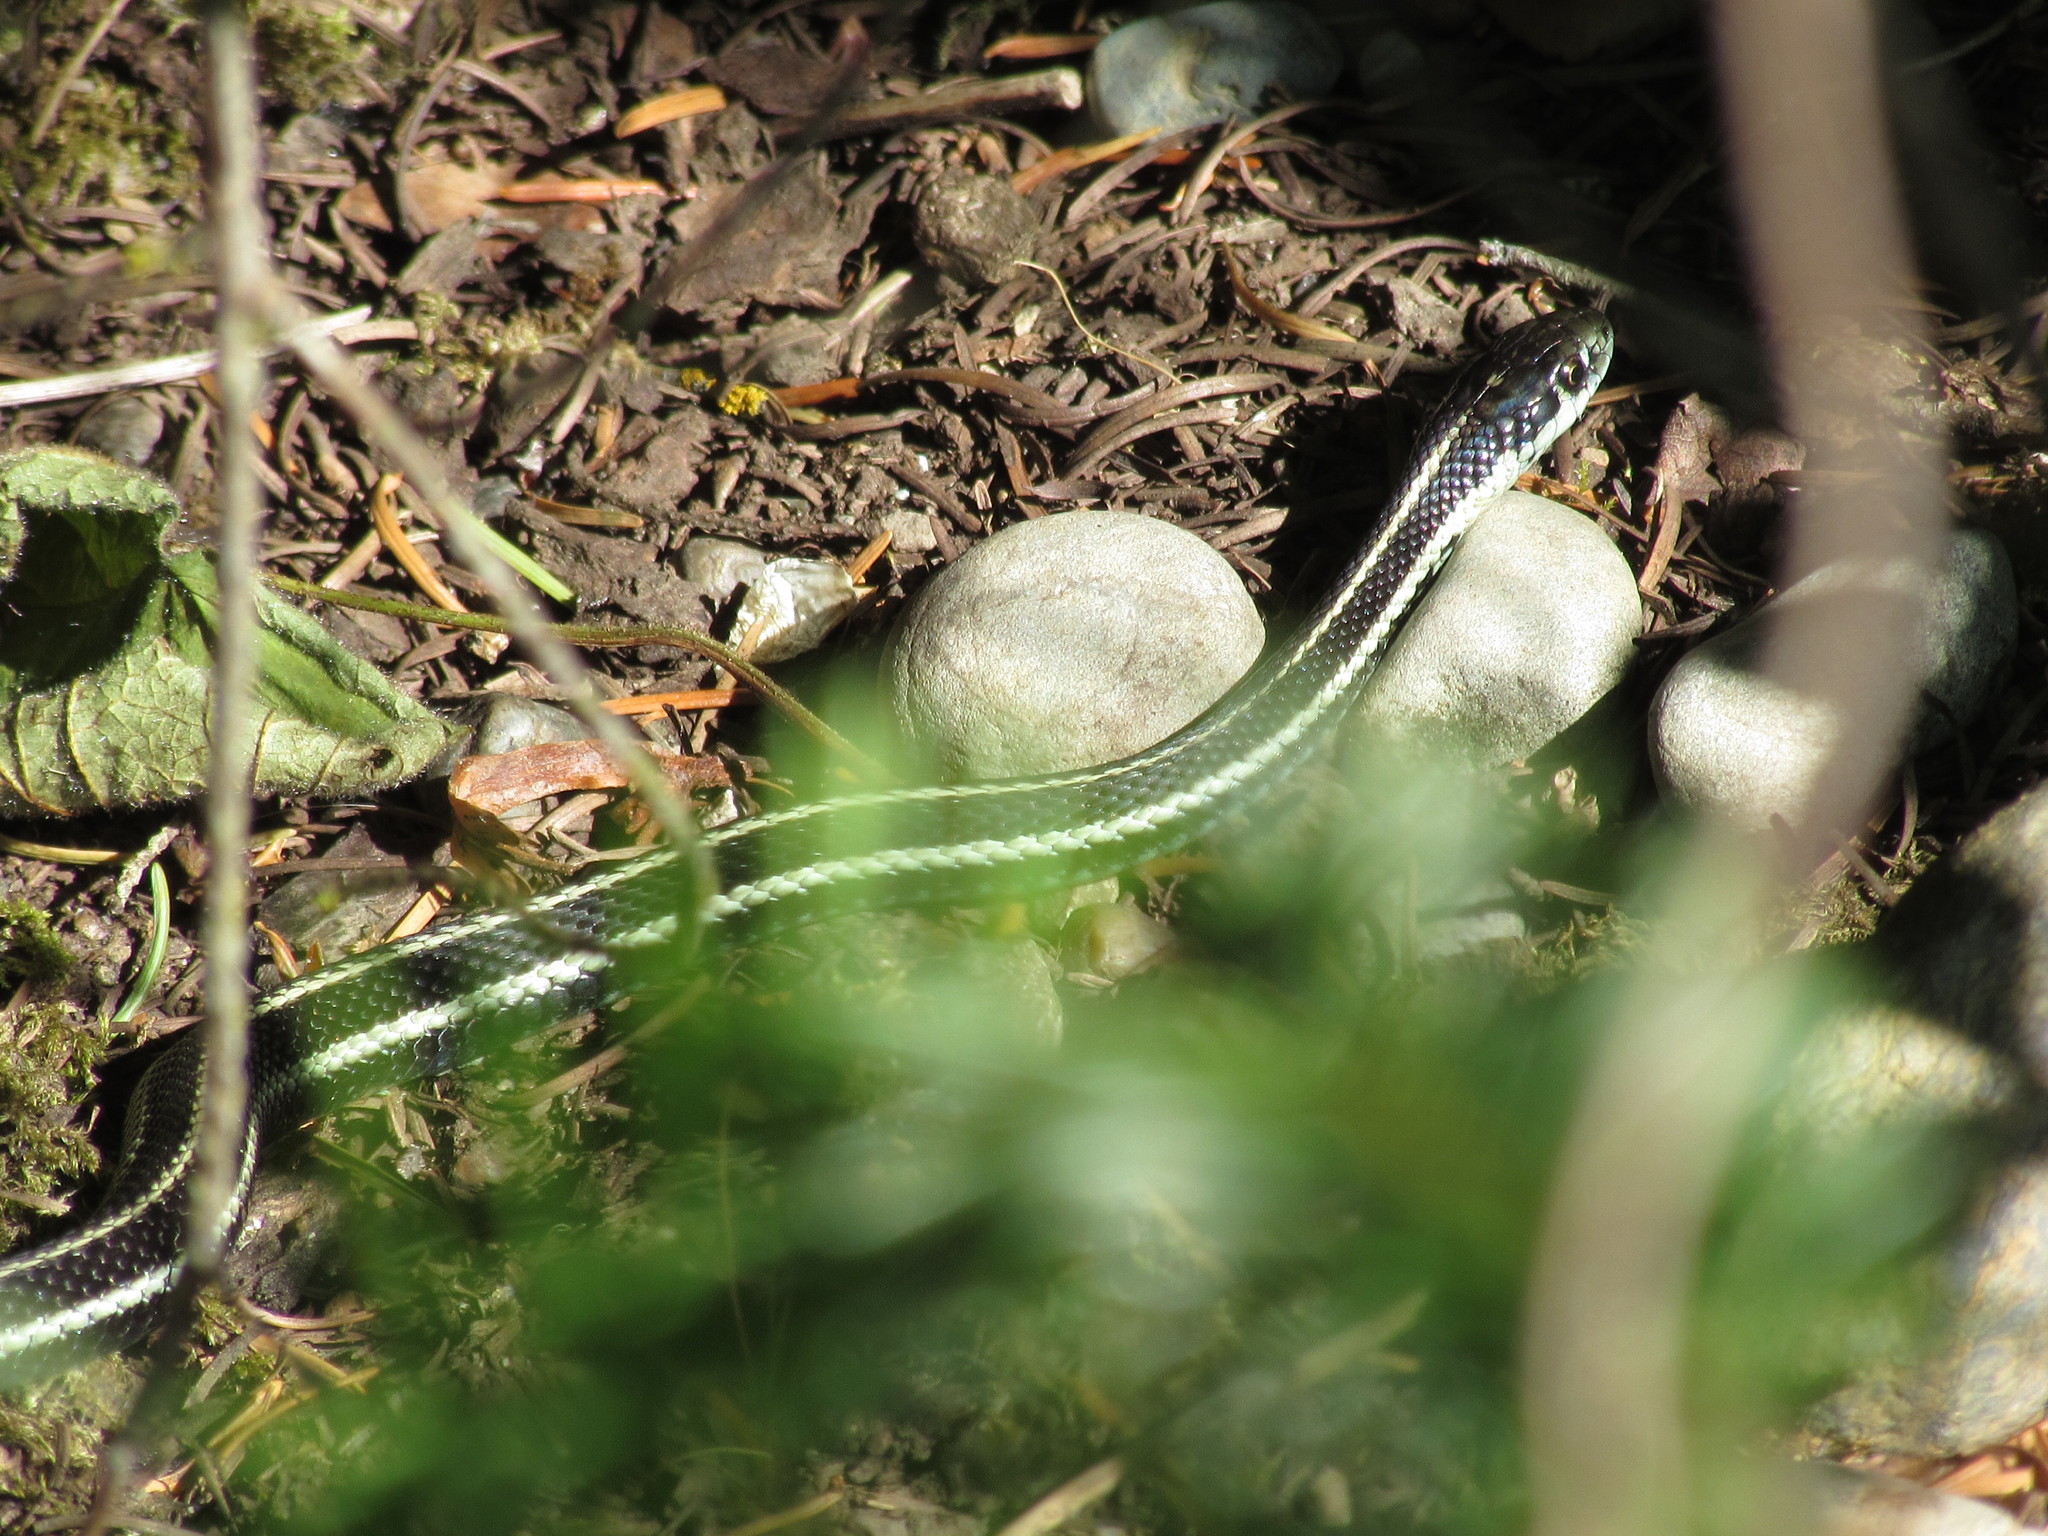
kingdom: Animalia
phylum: Chordata
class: Squamata
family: Colubridae
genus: Thamnophis
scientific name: Thamnophis sirtalis
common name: Common garter snake
